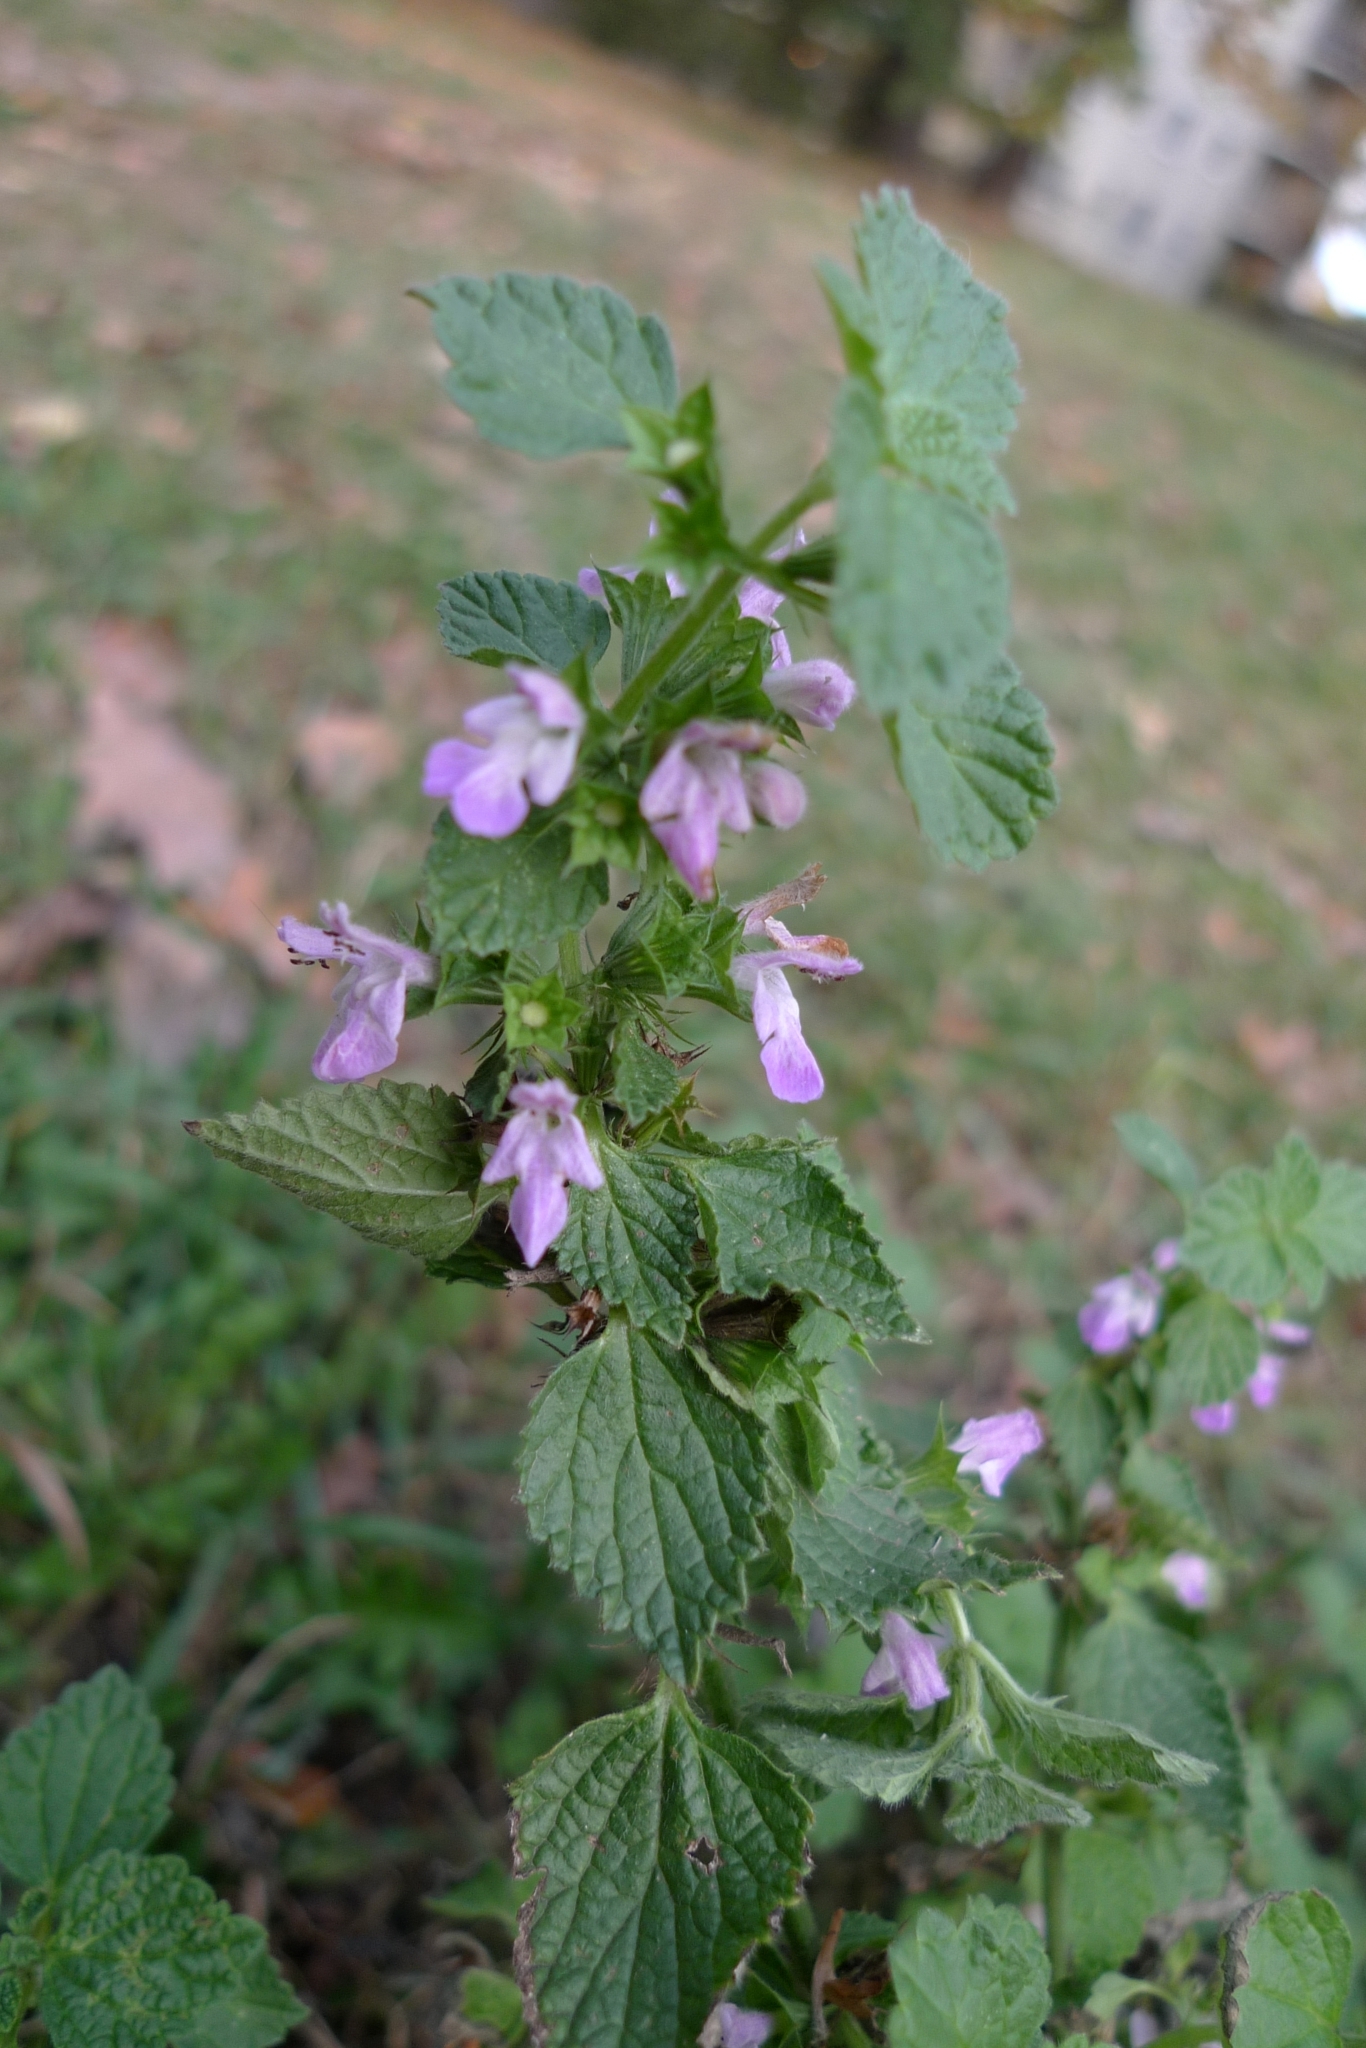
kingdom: Plantae
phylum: Tracheophyta
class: Magnoliopsida
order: Lamiales
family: Lamiaceae
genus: Ballota
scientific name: Ballota nigra
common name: Black horehound
